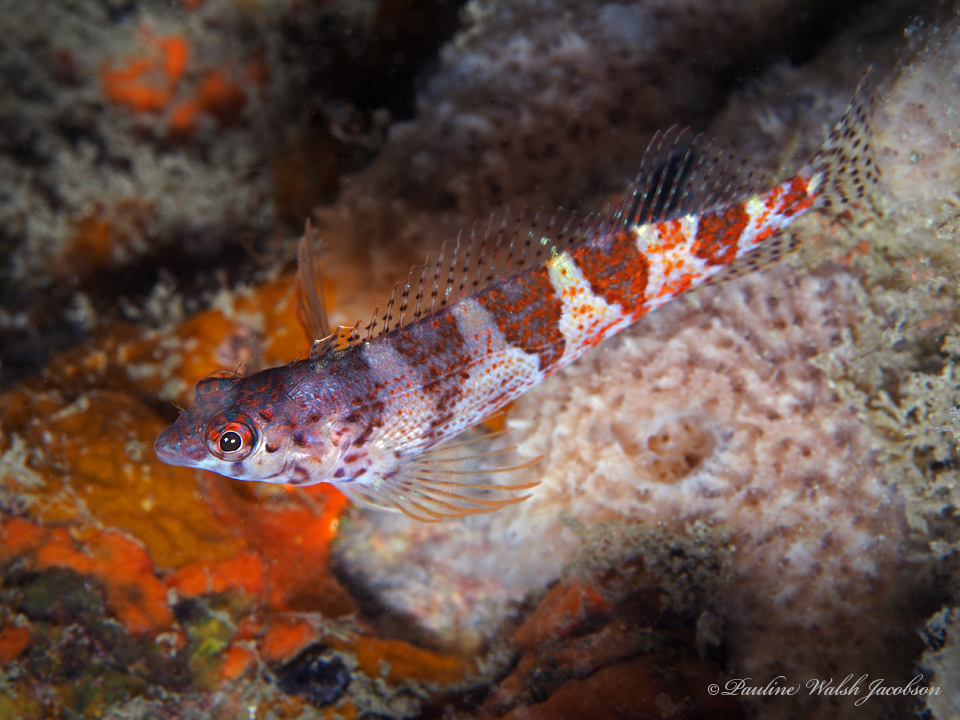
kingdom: Animalia
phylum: Chordata
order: Perciformes
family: Labrisomidae
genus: Malacoctenus
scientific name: Malacoctenus triangulatus
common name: Saddled blenny
